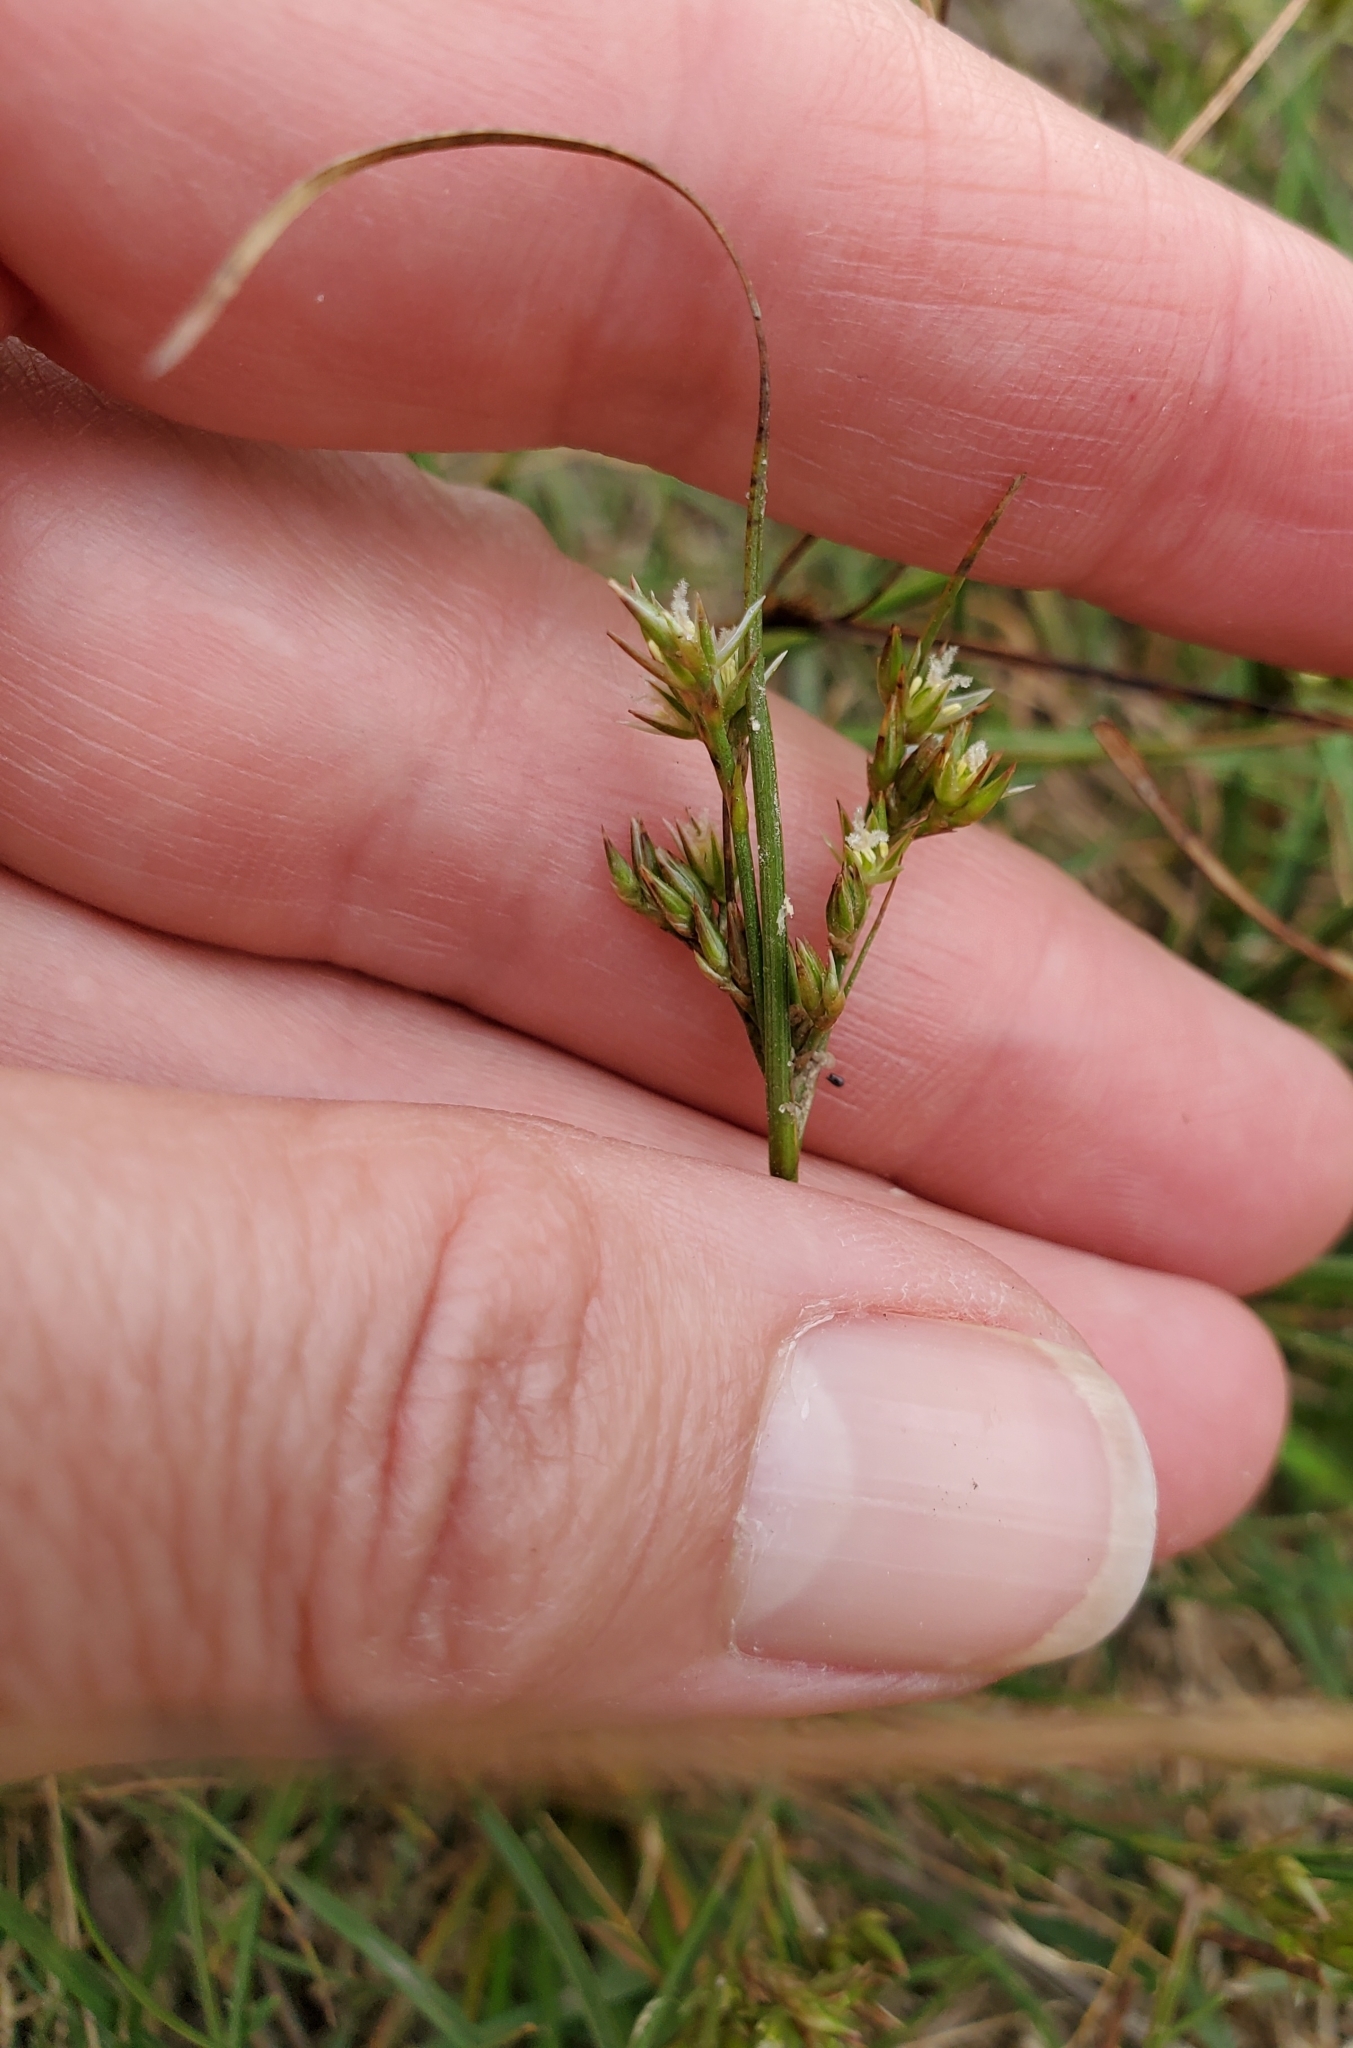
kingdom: Plantae
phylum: Tracheophyta
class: Liliopsida
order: Poales
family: Juncaceae
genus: Juncus
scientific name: Juncus tenuis
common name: Slender rush
